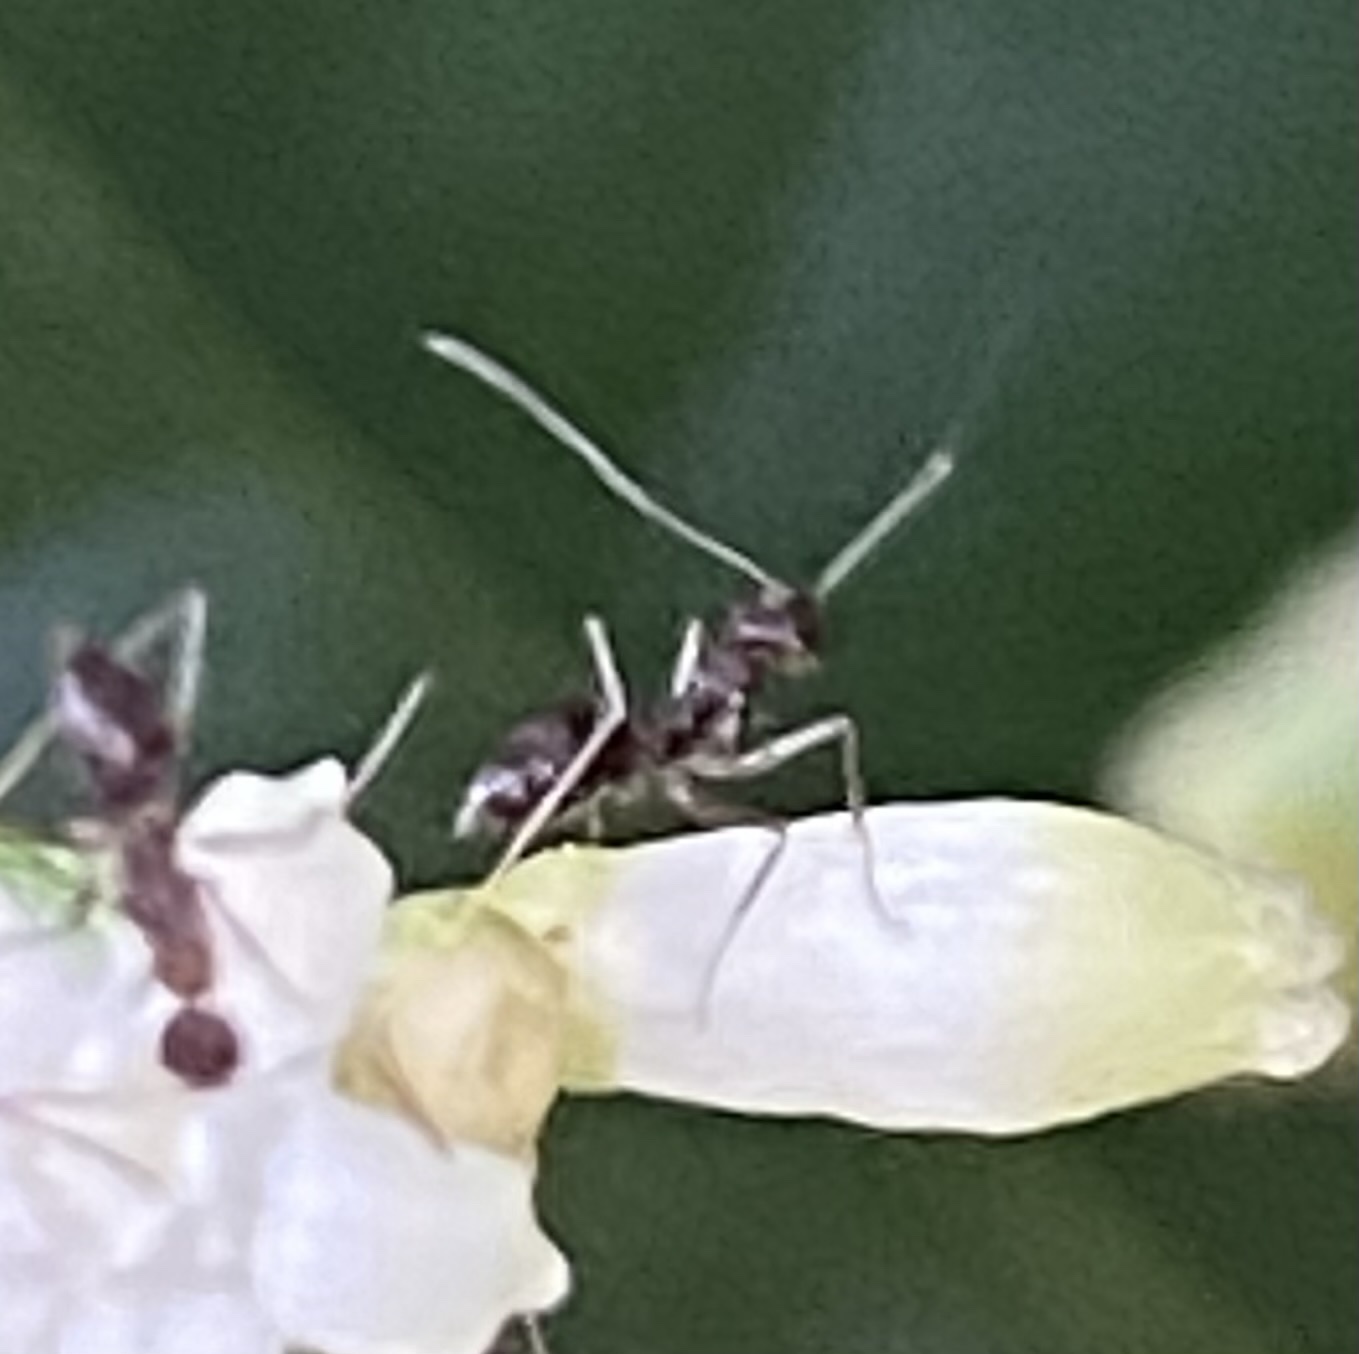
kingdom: Animalia
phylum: Arthropoda
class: Insecta
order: Hymenoptera
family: Formicidae
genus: Paratrechina
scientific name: Paratrechina longicornis
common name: Longhorned crazy ant
